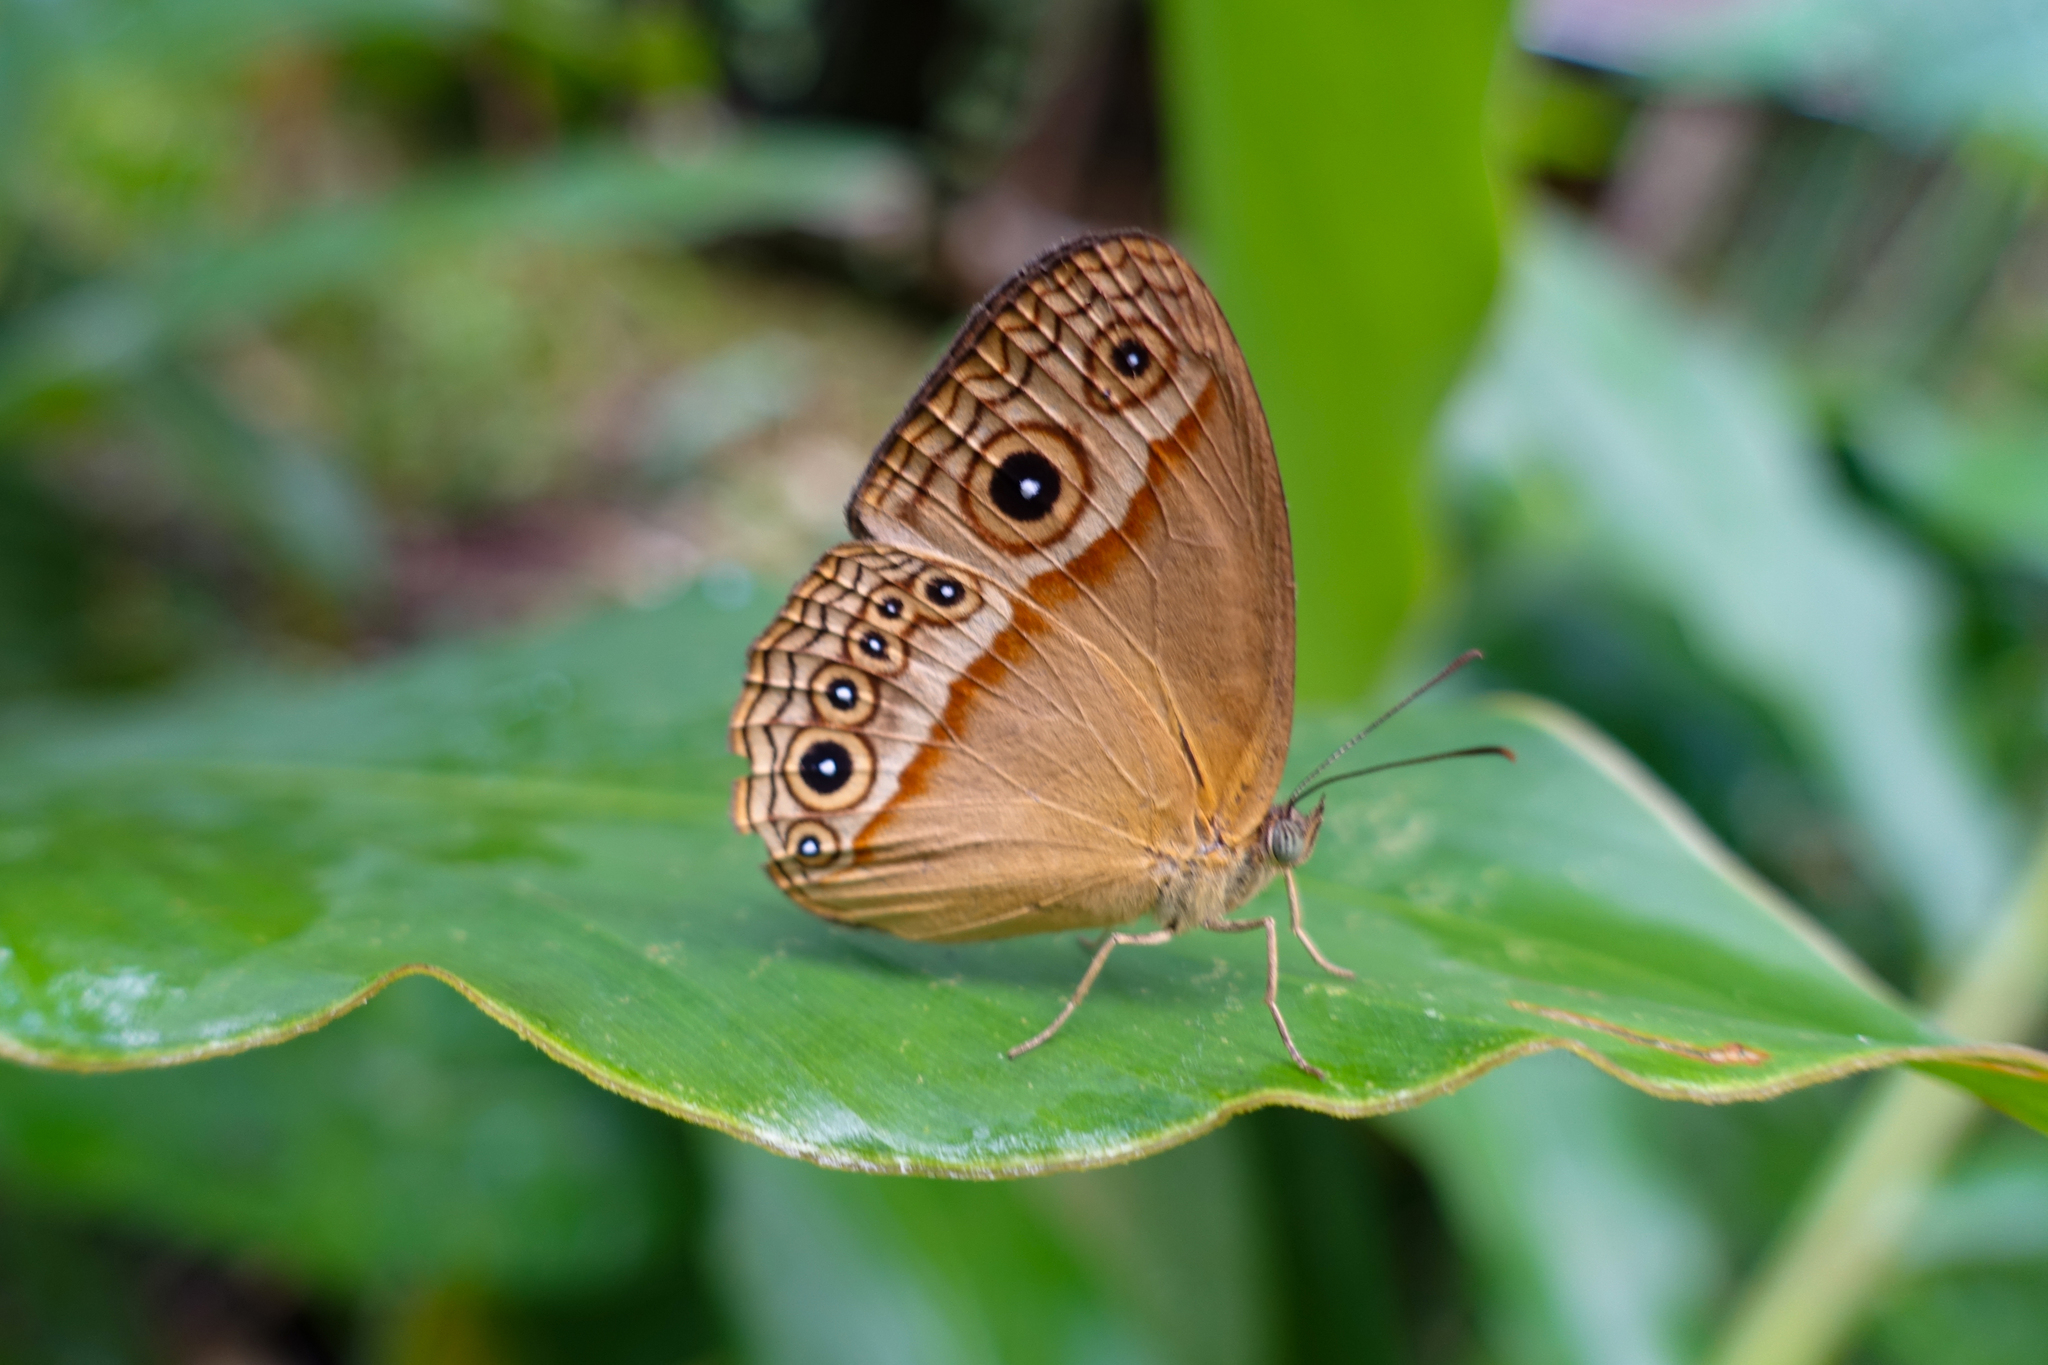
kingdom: Animalia
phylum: Arthropoda
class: Insecta
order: Lepidoptera
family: Nymphalidae
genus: Mycalesis
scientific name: Mycalesis phidon
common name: Hewitson's bushbrown
